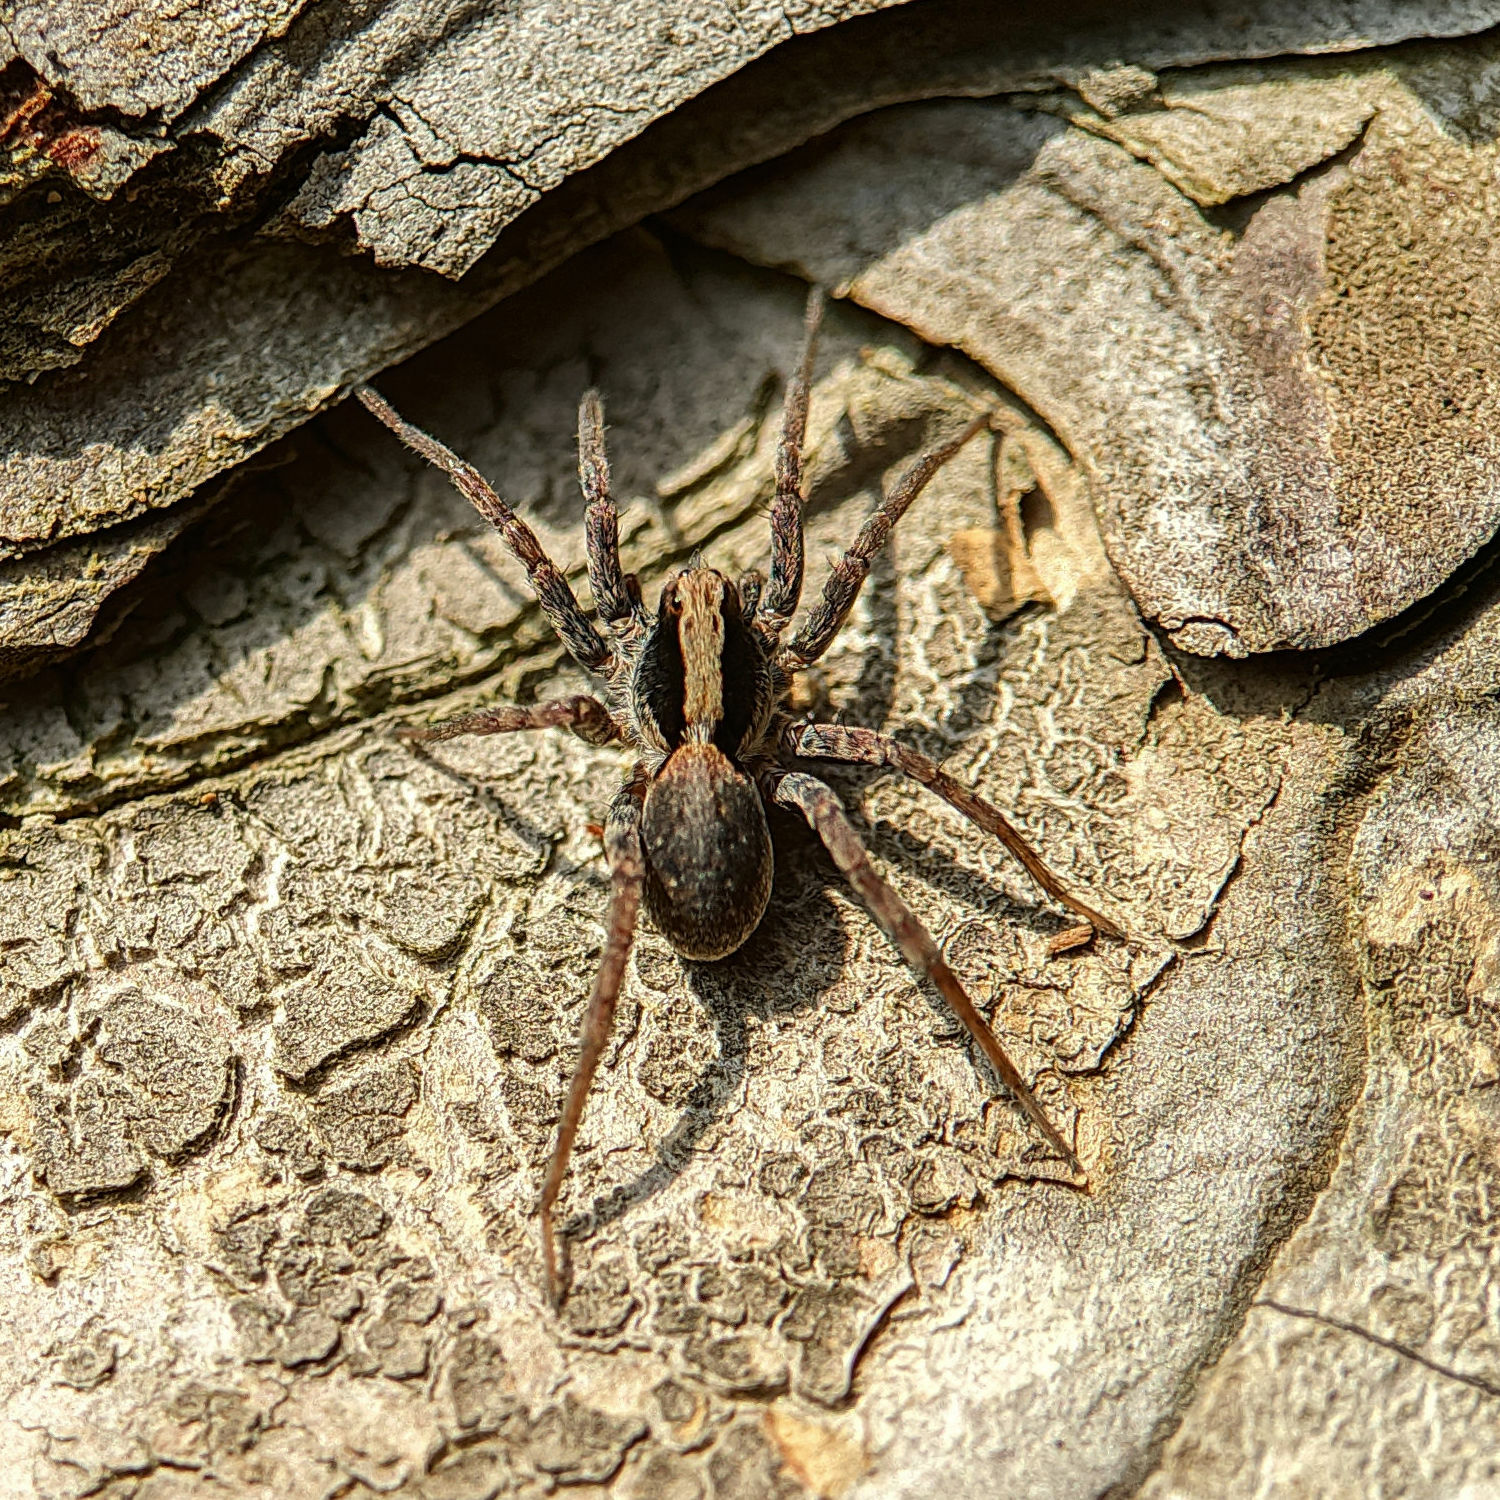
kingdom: Animalia
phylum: Arthropoda
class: Arachnida
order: Araneae
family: Lycosidae
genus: Xerolycosa
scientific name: Xerolycosa nemoralis
